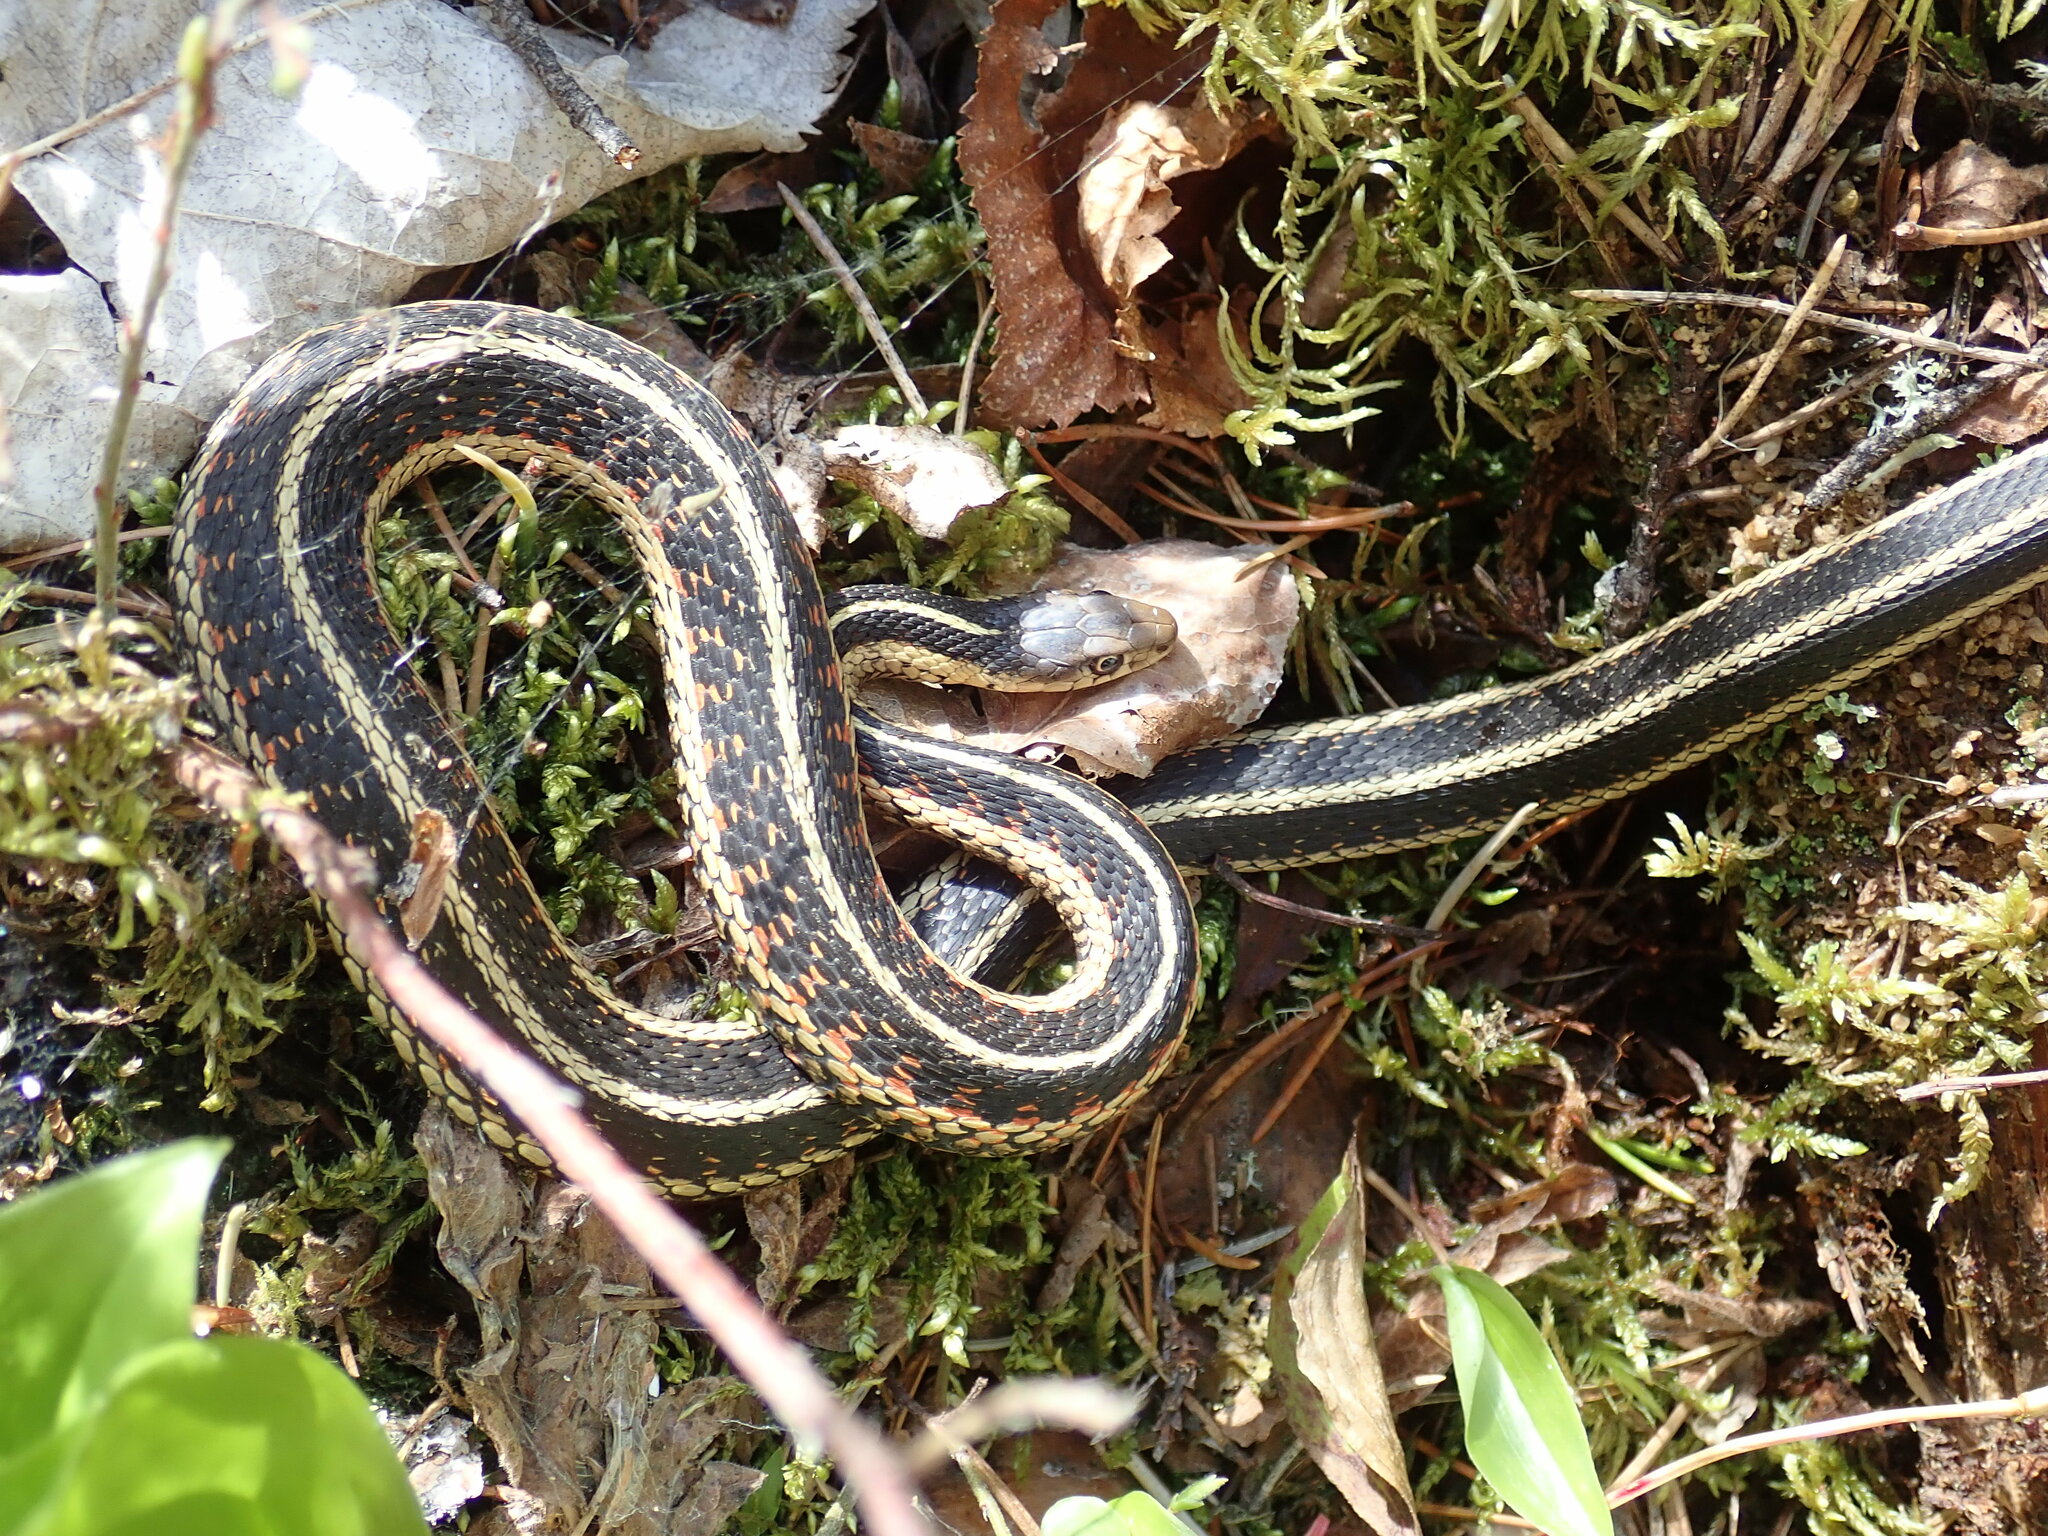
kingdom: Animalia
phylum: Chordata
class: Squamata
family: Colubridae
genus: Thamnophis
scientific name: Thamnophis sirtalis
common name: Common garter snake
